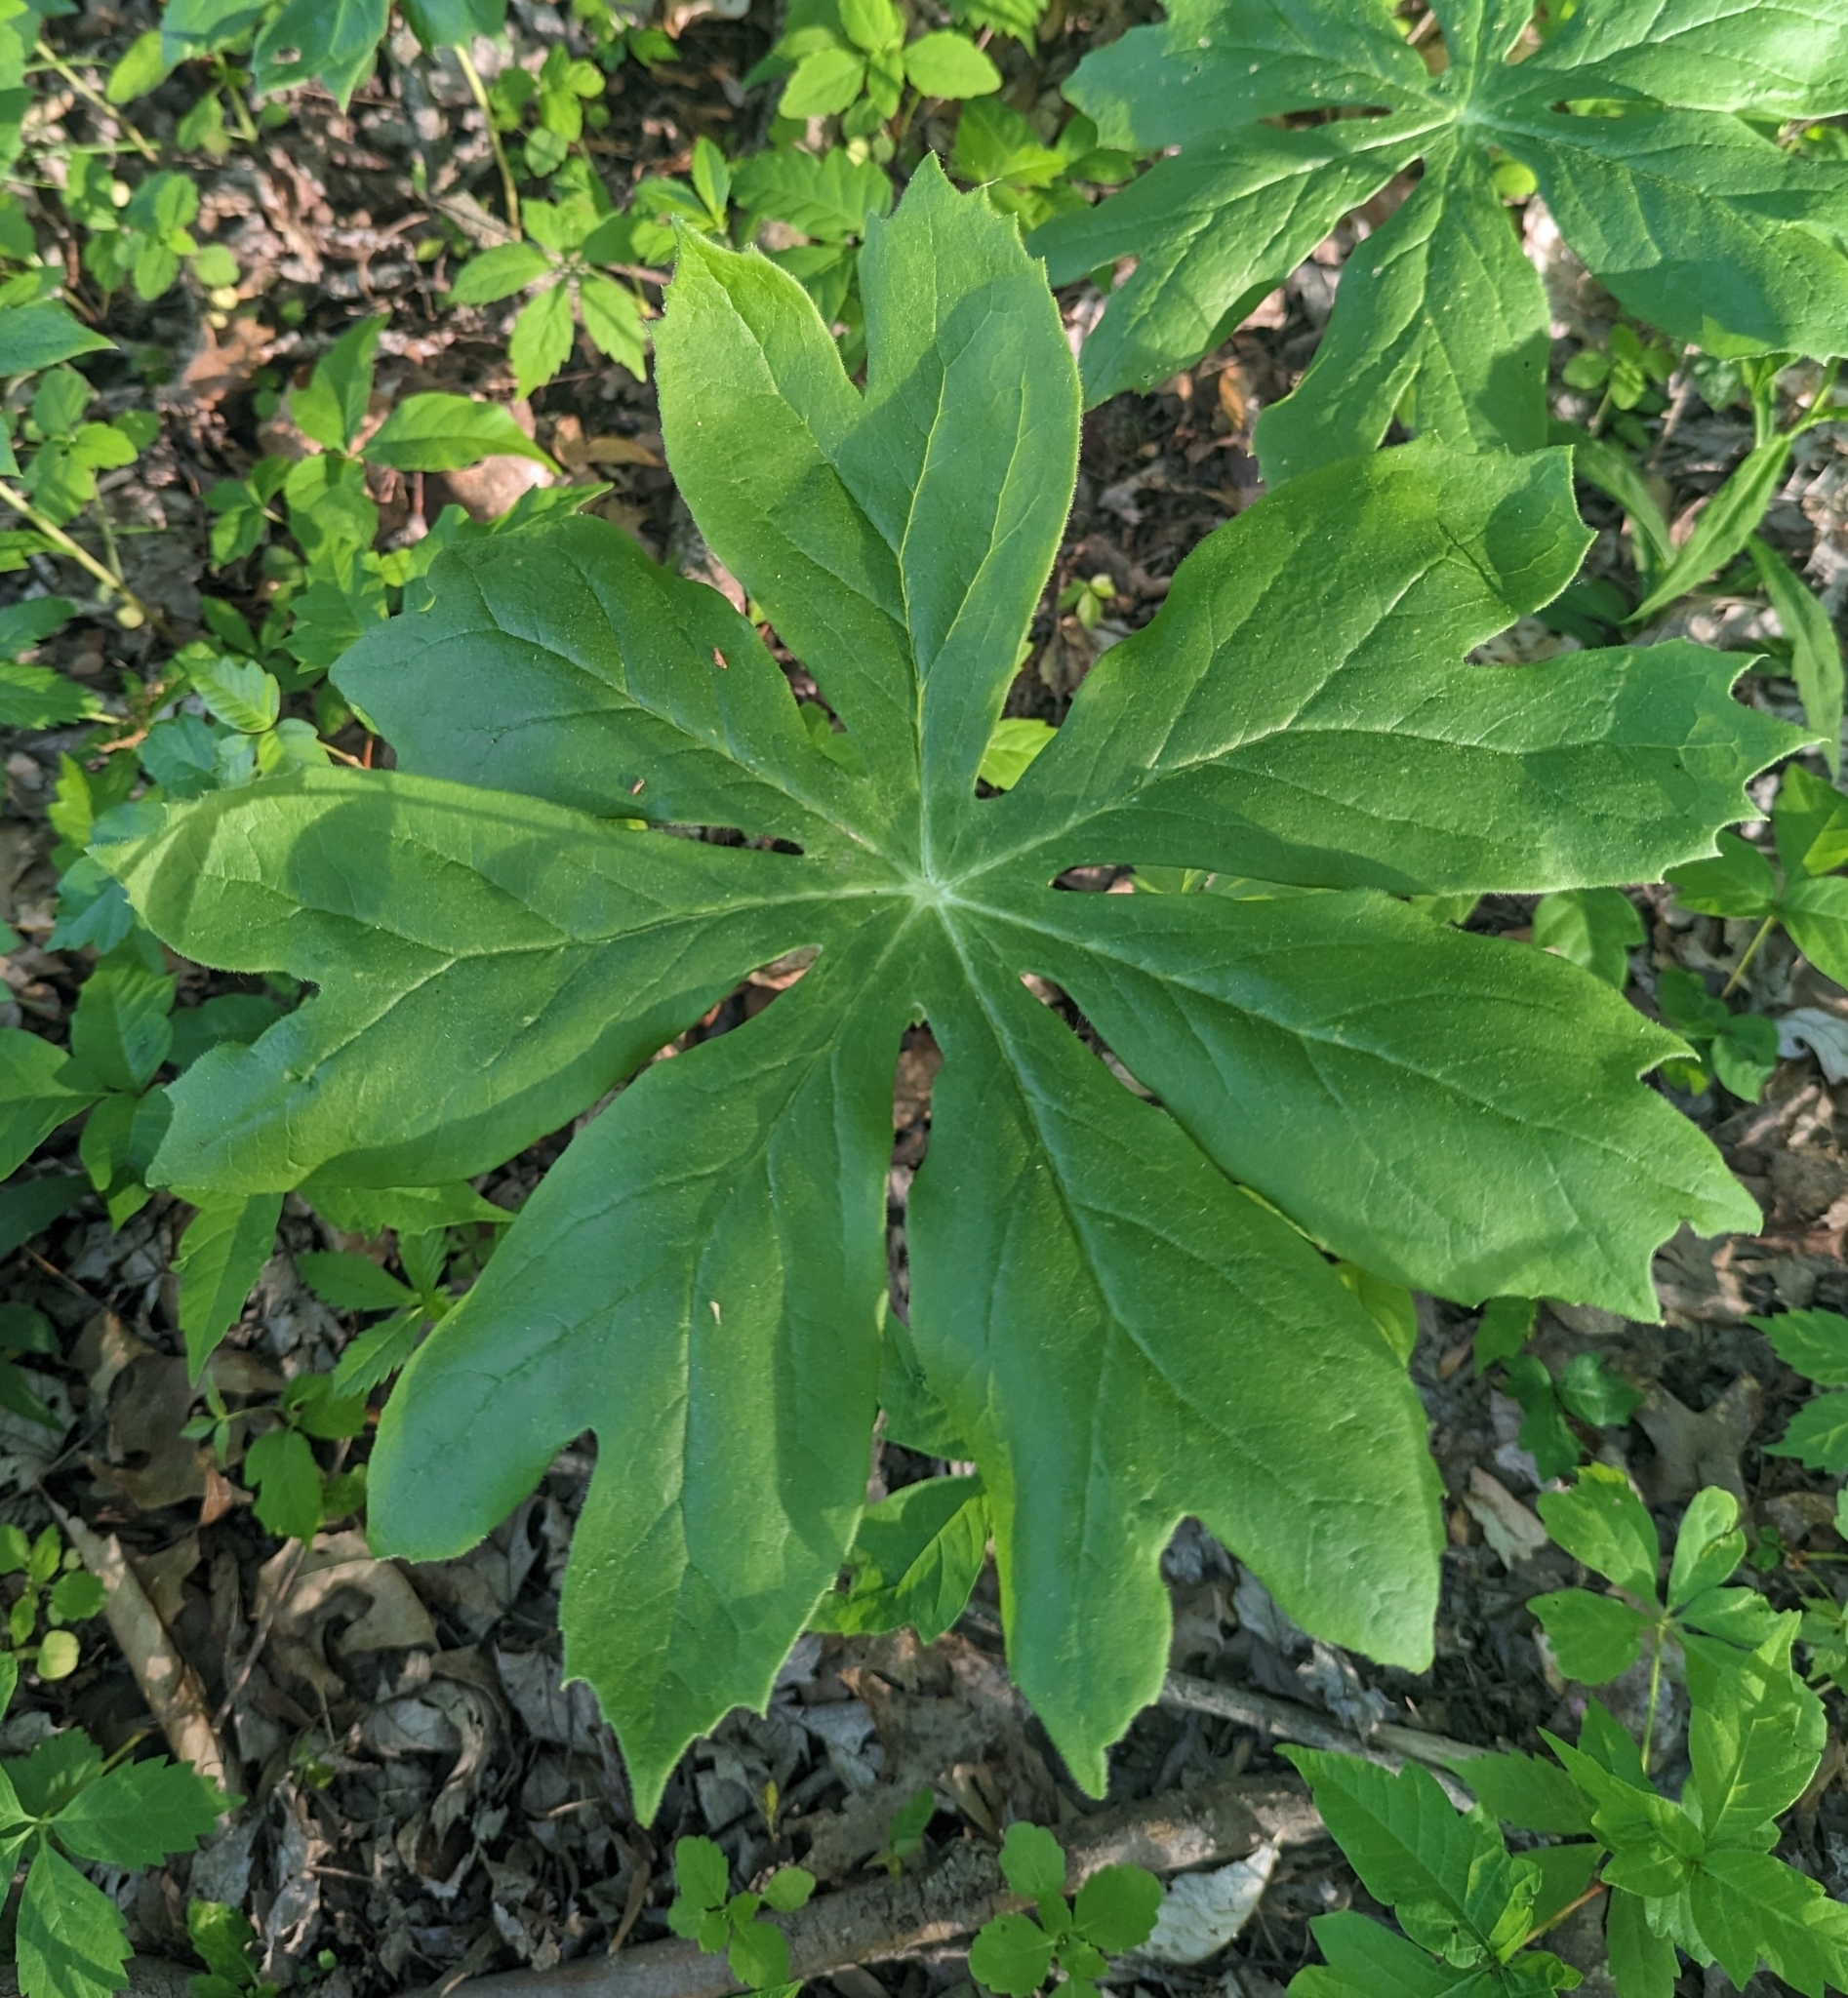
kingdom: Plantae
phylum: Tracheophyta
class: Magnoliopsida
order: Ranunculales
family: Berberidaceae
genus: Podophyllum
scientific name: Podophyllum peltatum
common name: Wild mandrake
